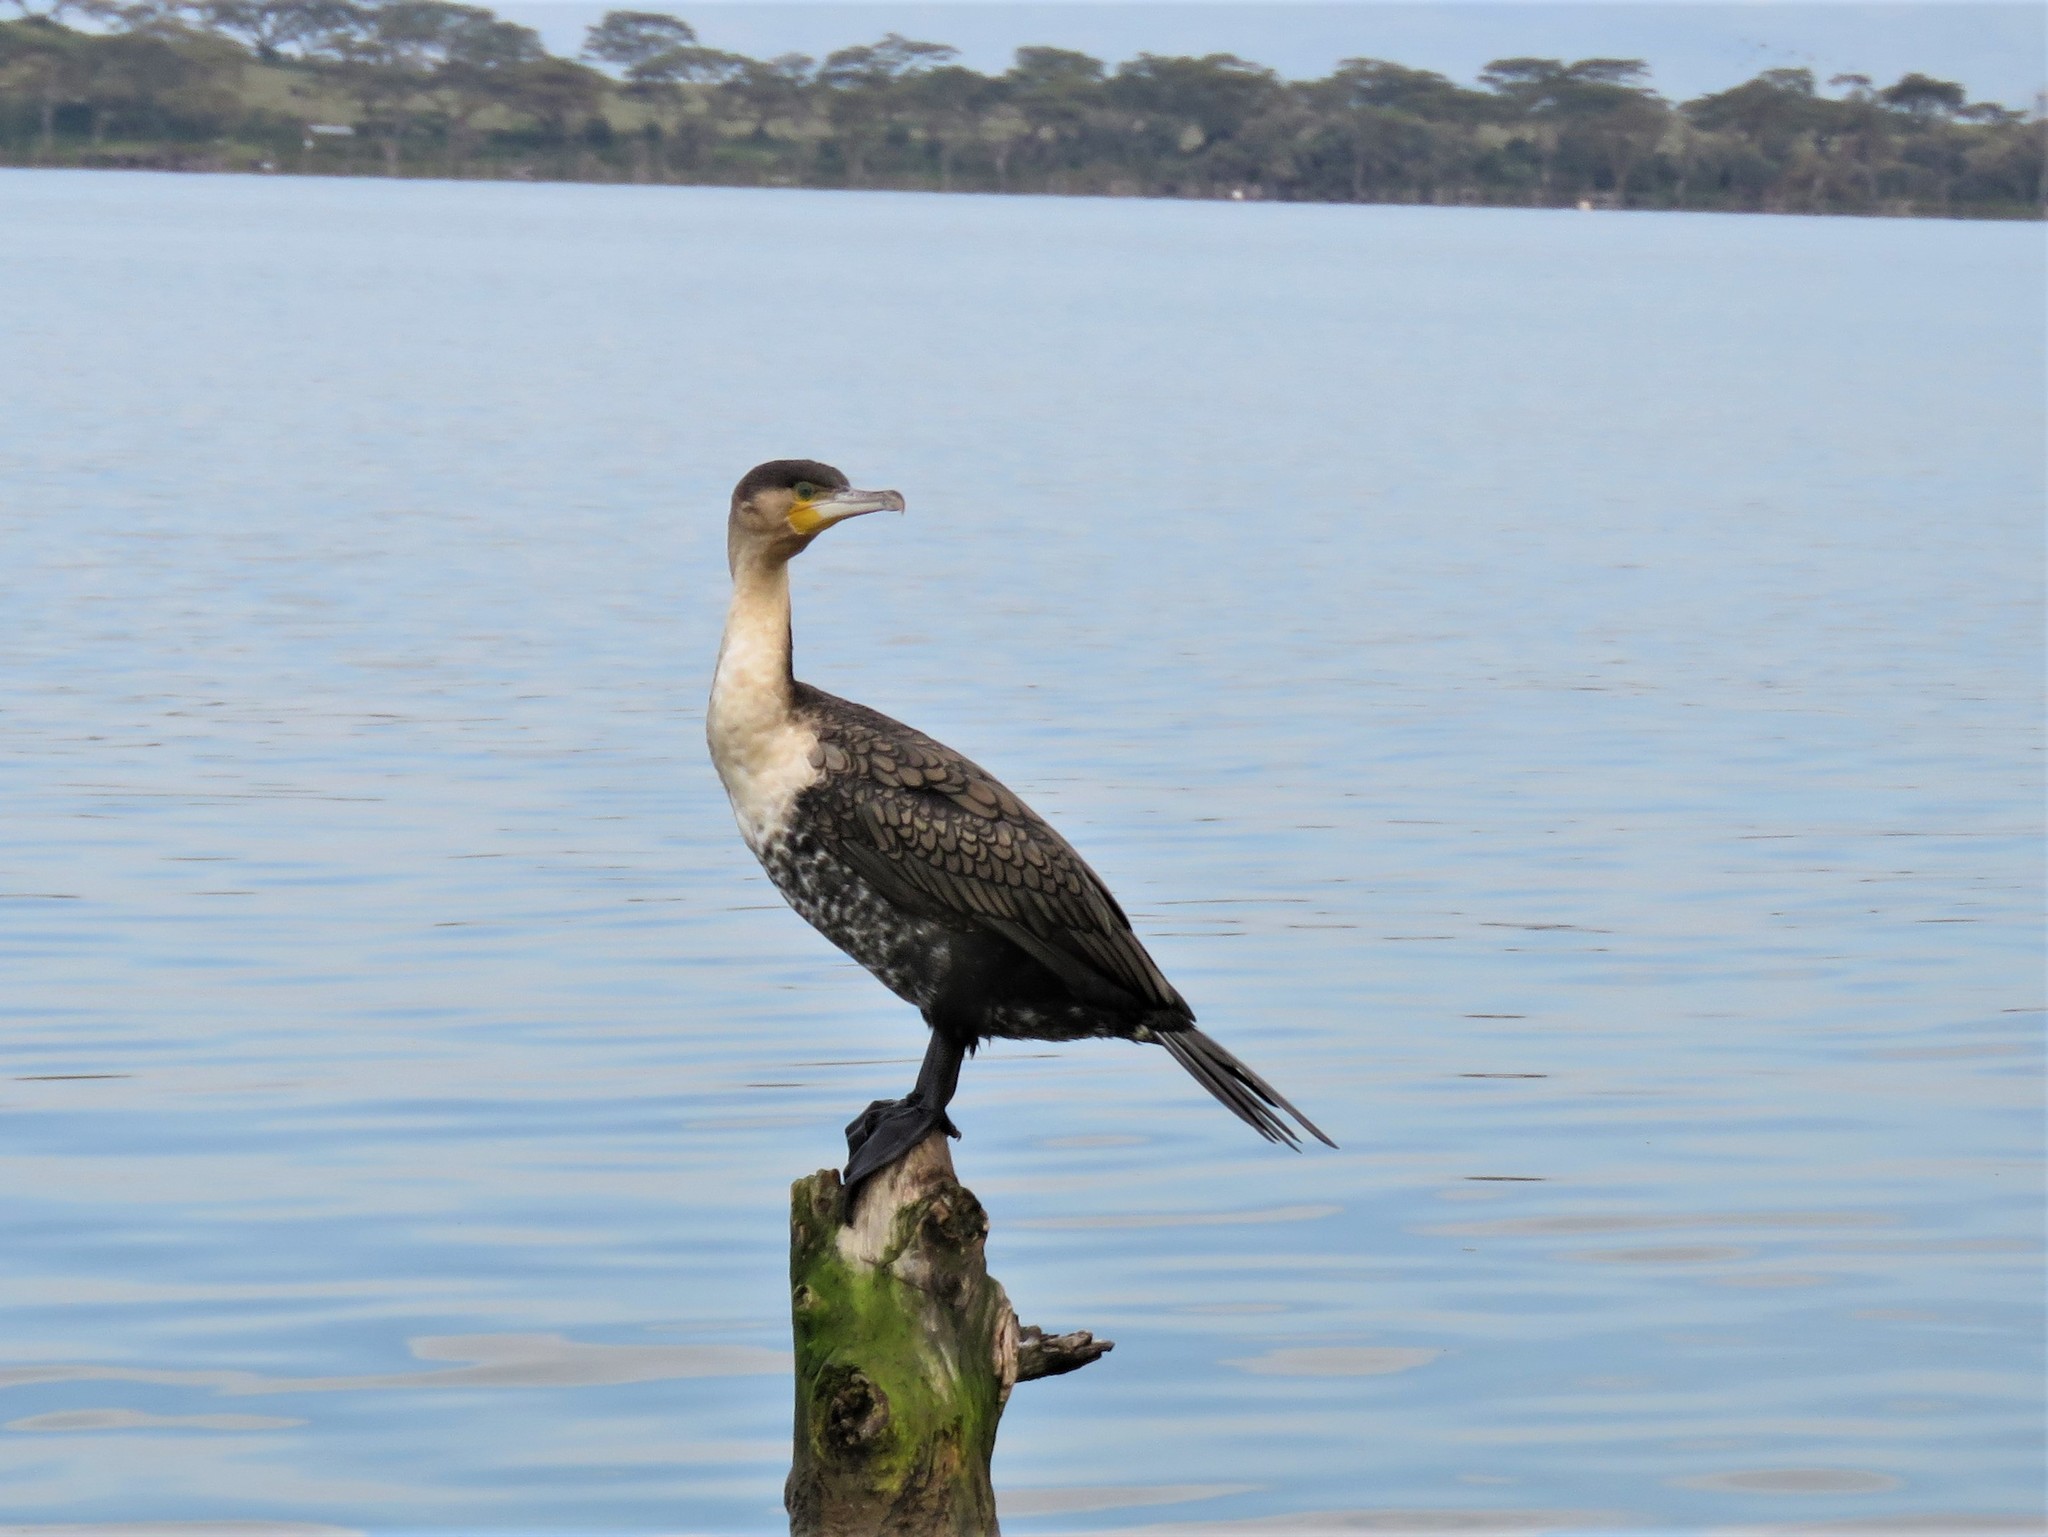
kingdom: Animalia
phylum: Chordata
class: Aves
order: Suliformes
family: Phalacrocoracidae
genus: Phalacrocorax
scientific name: Phalacrocorax carbo
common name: Great cormorant
